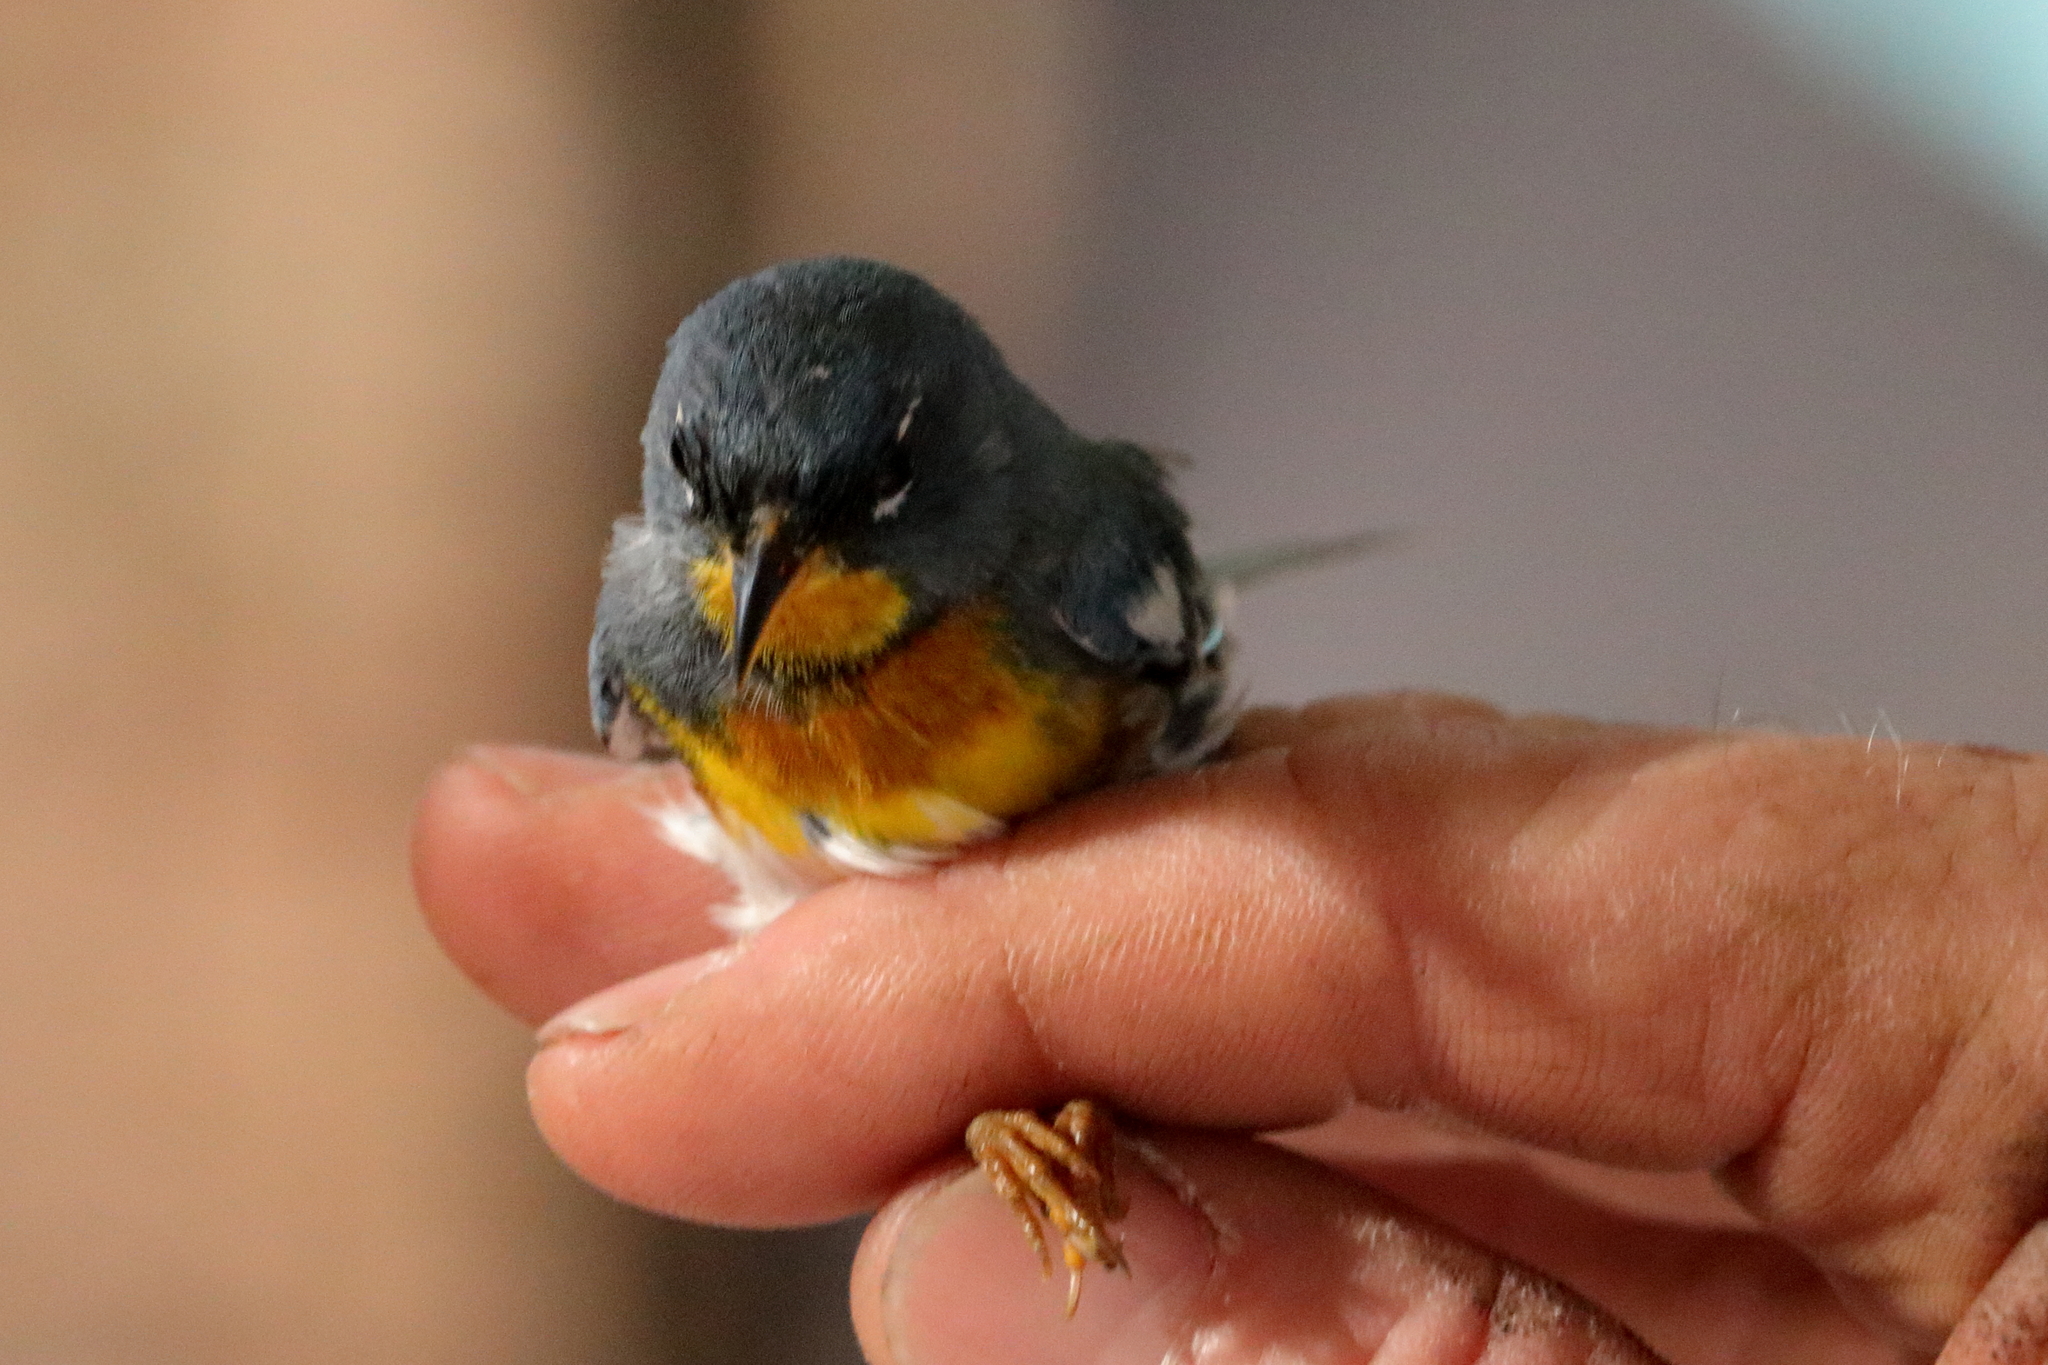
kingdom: Animalia
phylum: Chordata
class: Aves
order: Passeriformes
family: Parulidae
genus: Setophaga
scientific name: Setophaga americana
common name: Northern parula
